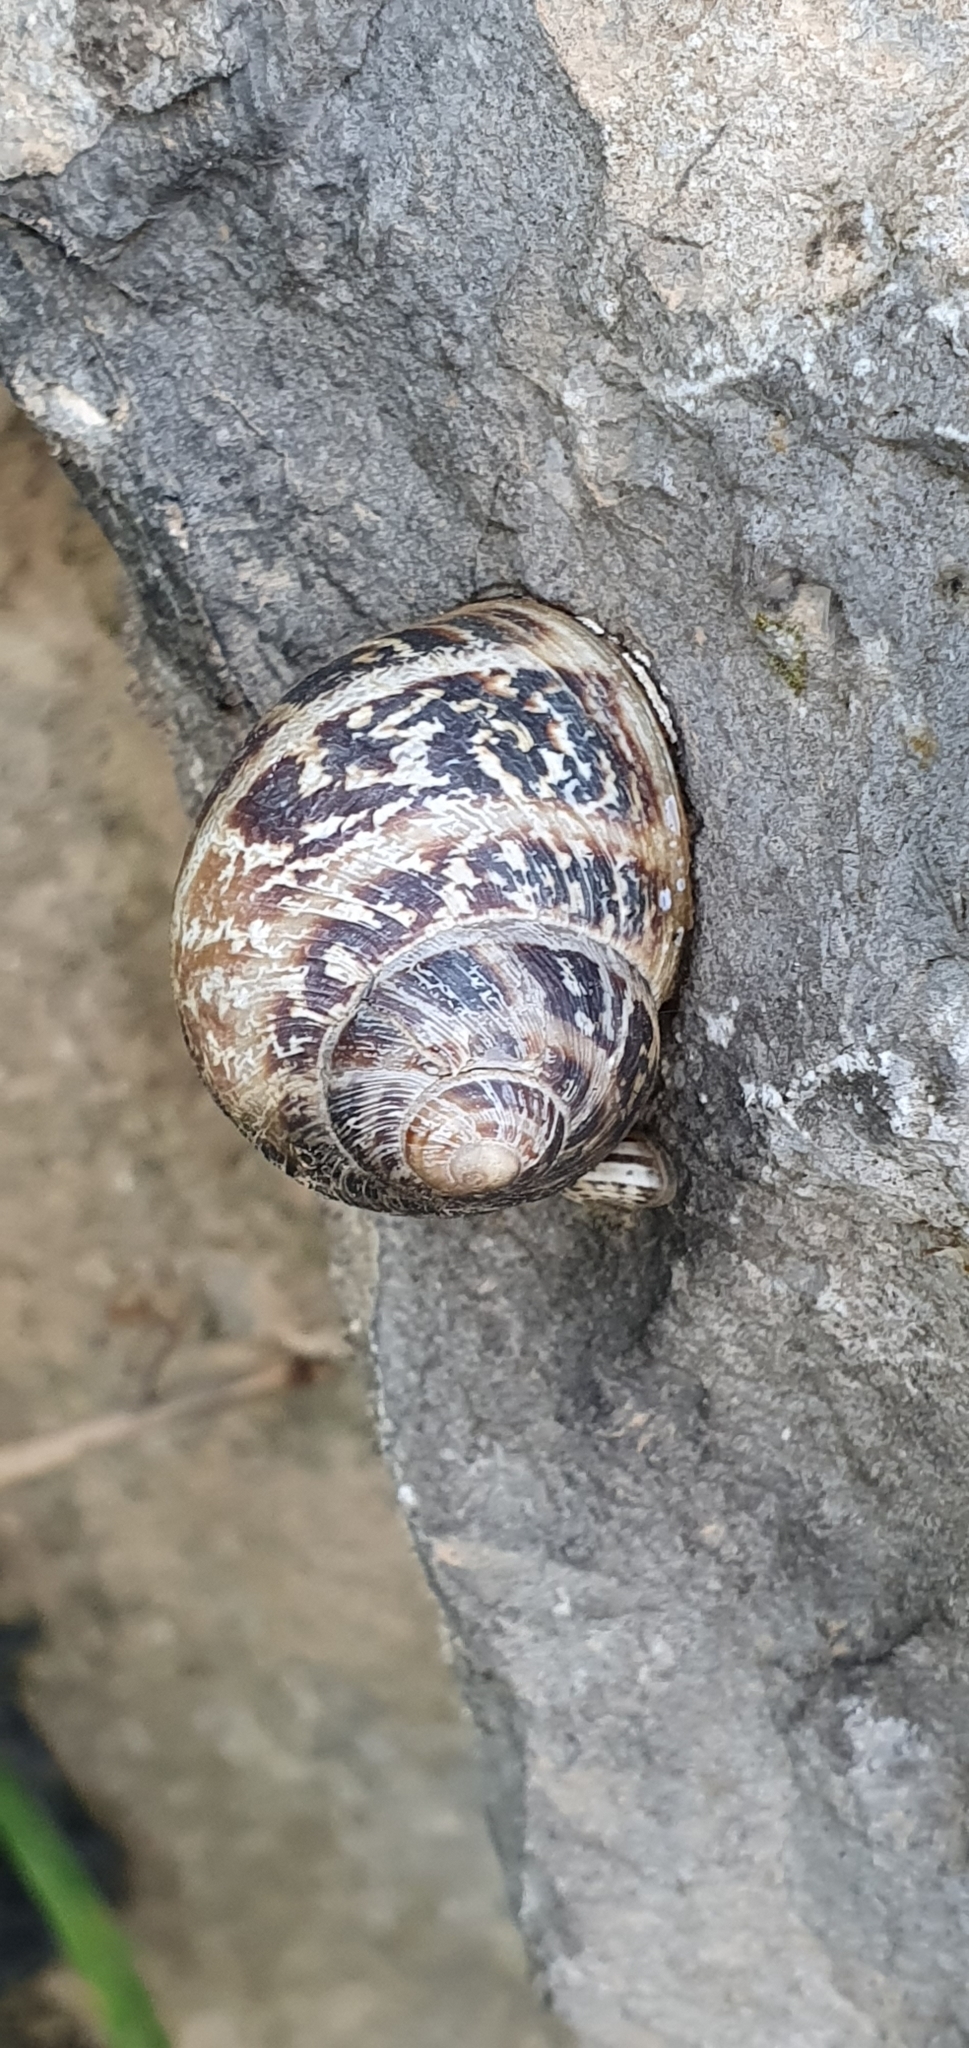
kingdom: Animalia
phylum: Mollusca
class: Gastropoda
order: Stylommatophora
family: Helicidae
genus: Cornu
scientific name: Cornu aspersum
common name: Brown garden snail
